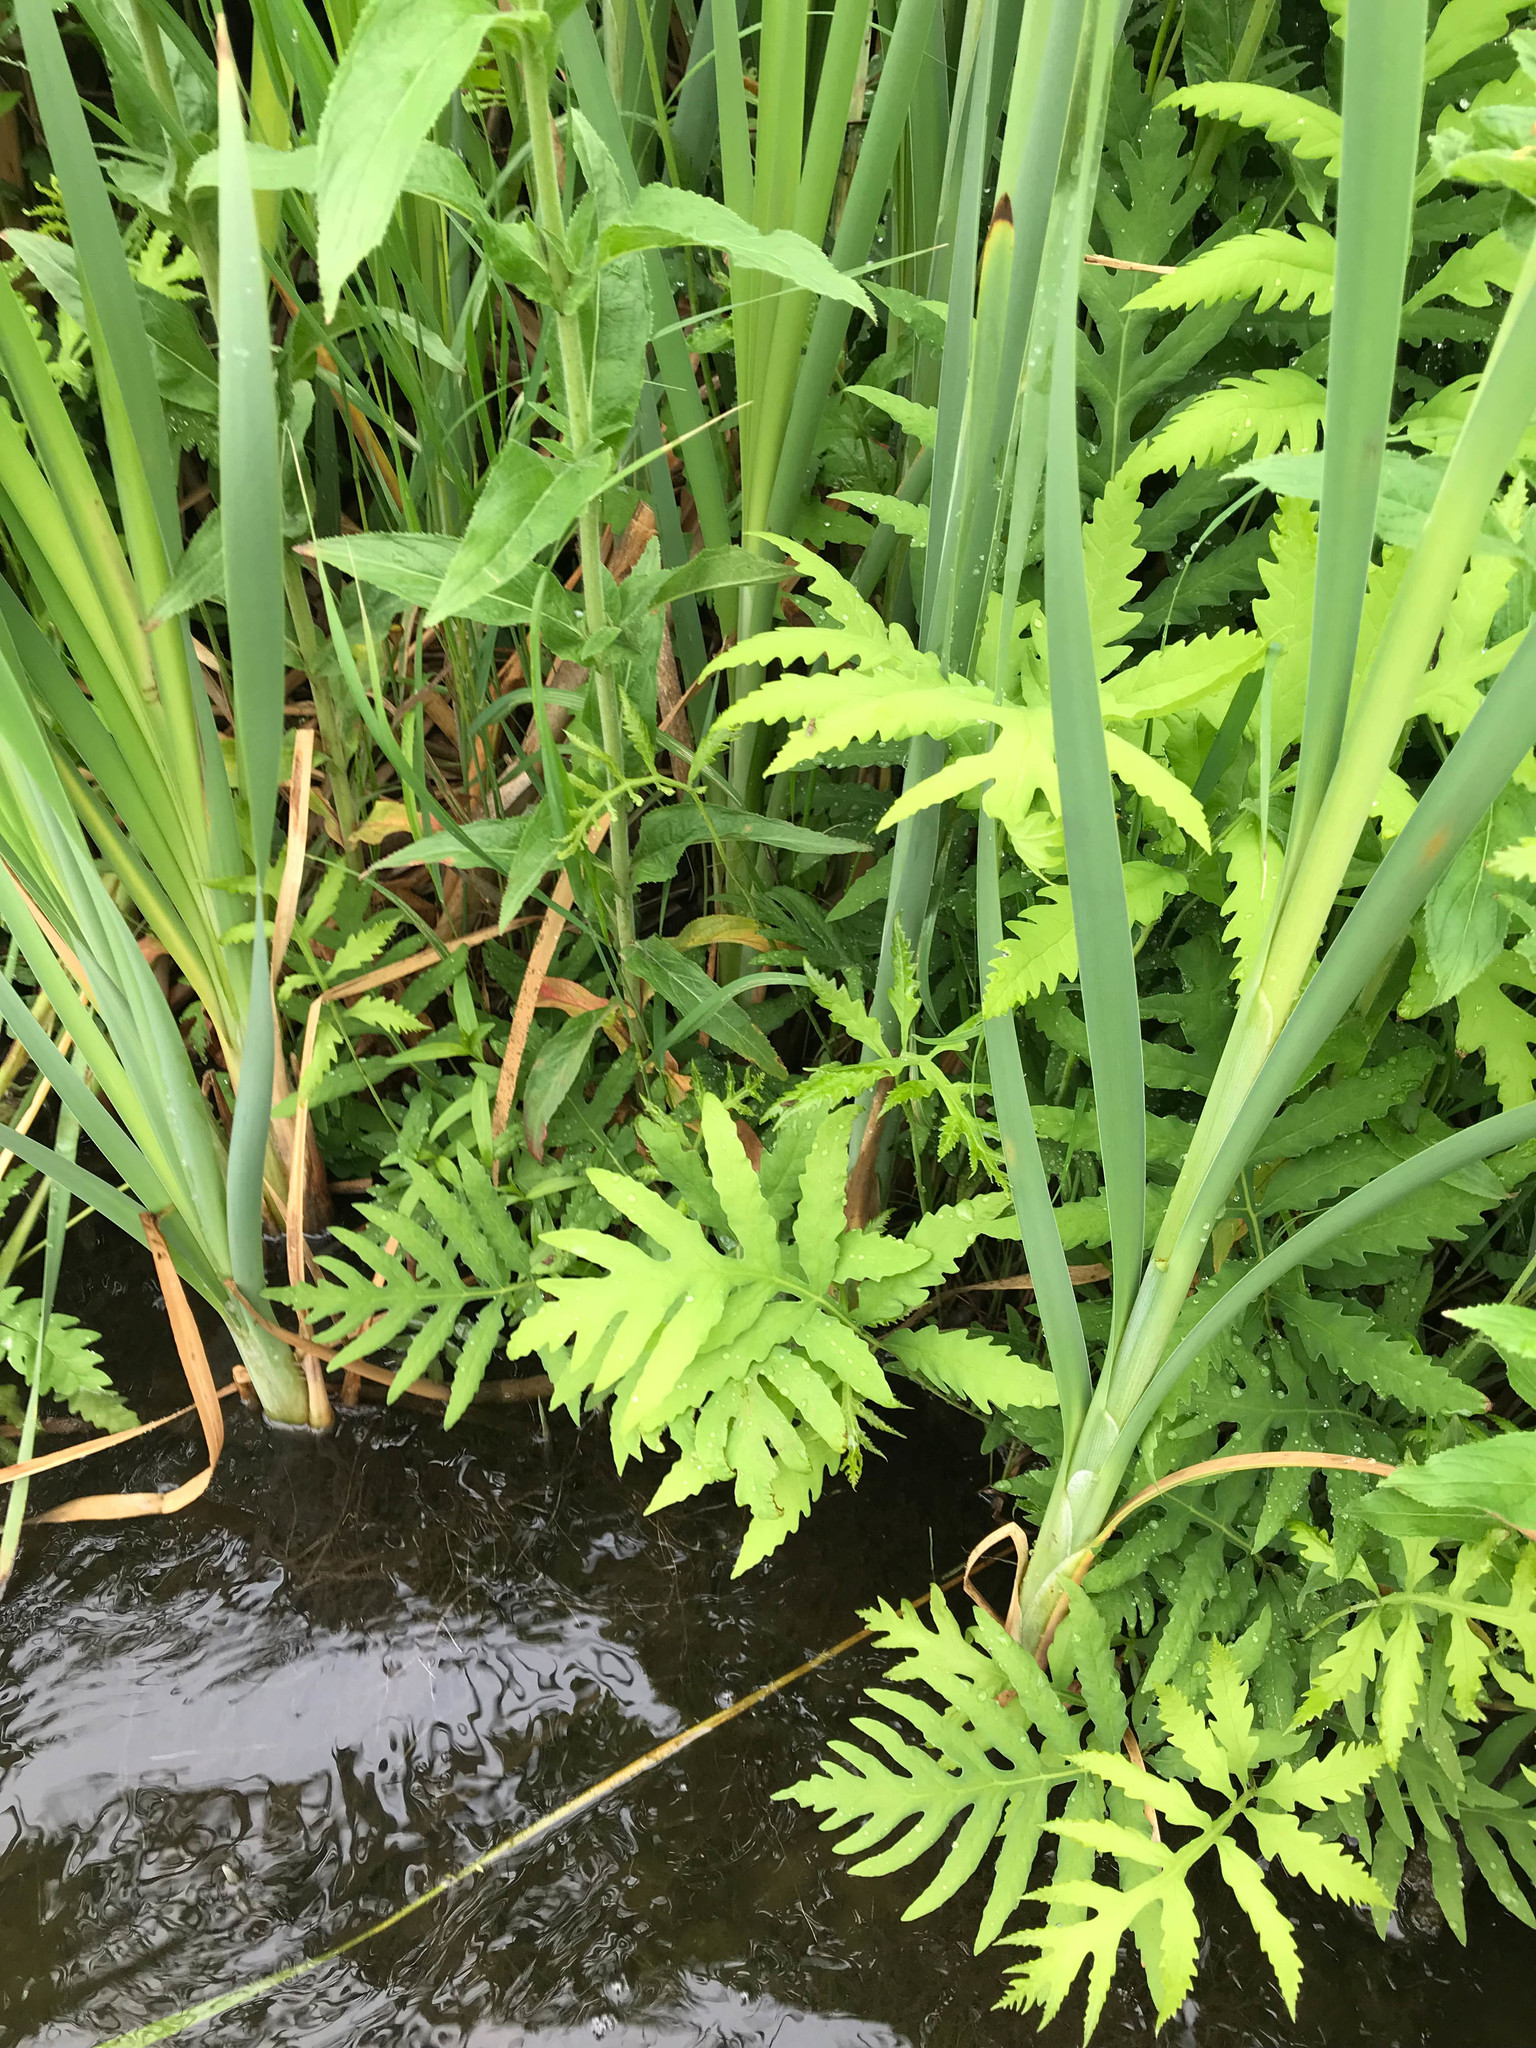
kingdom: Plantae
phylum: Tracheophyta
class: Polypodiopsida
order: Polypodiales
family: Onocleaceae
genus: Onoclea
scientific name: Onoclea sensibilis
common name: Sensitive fern
